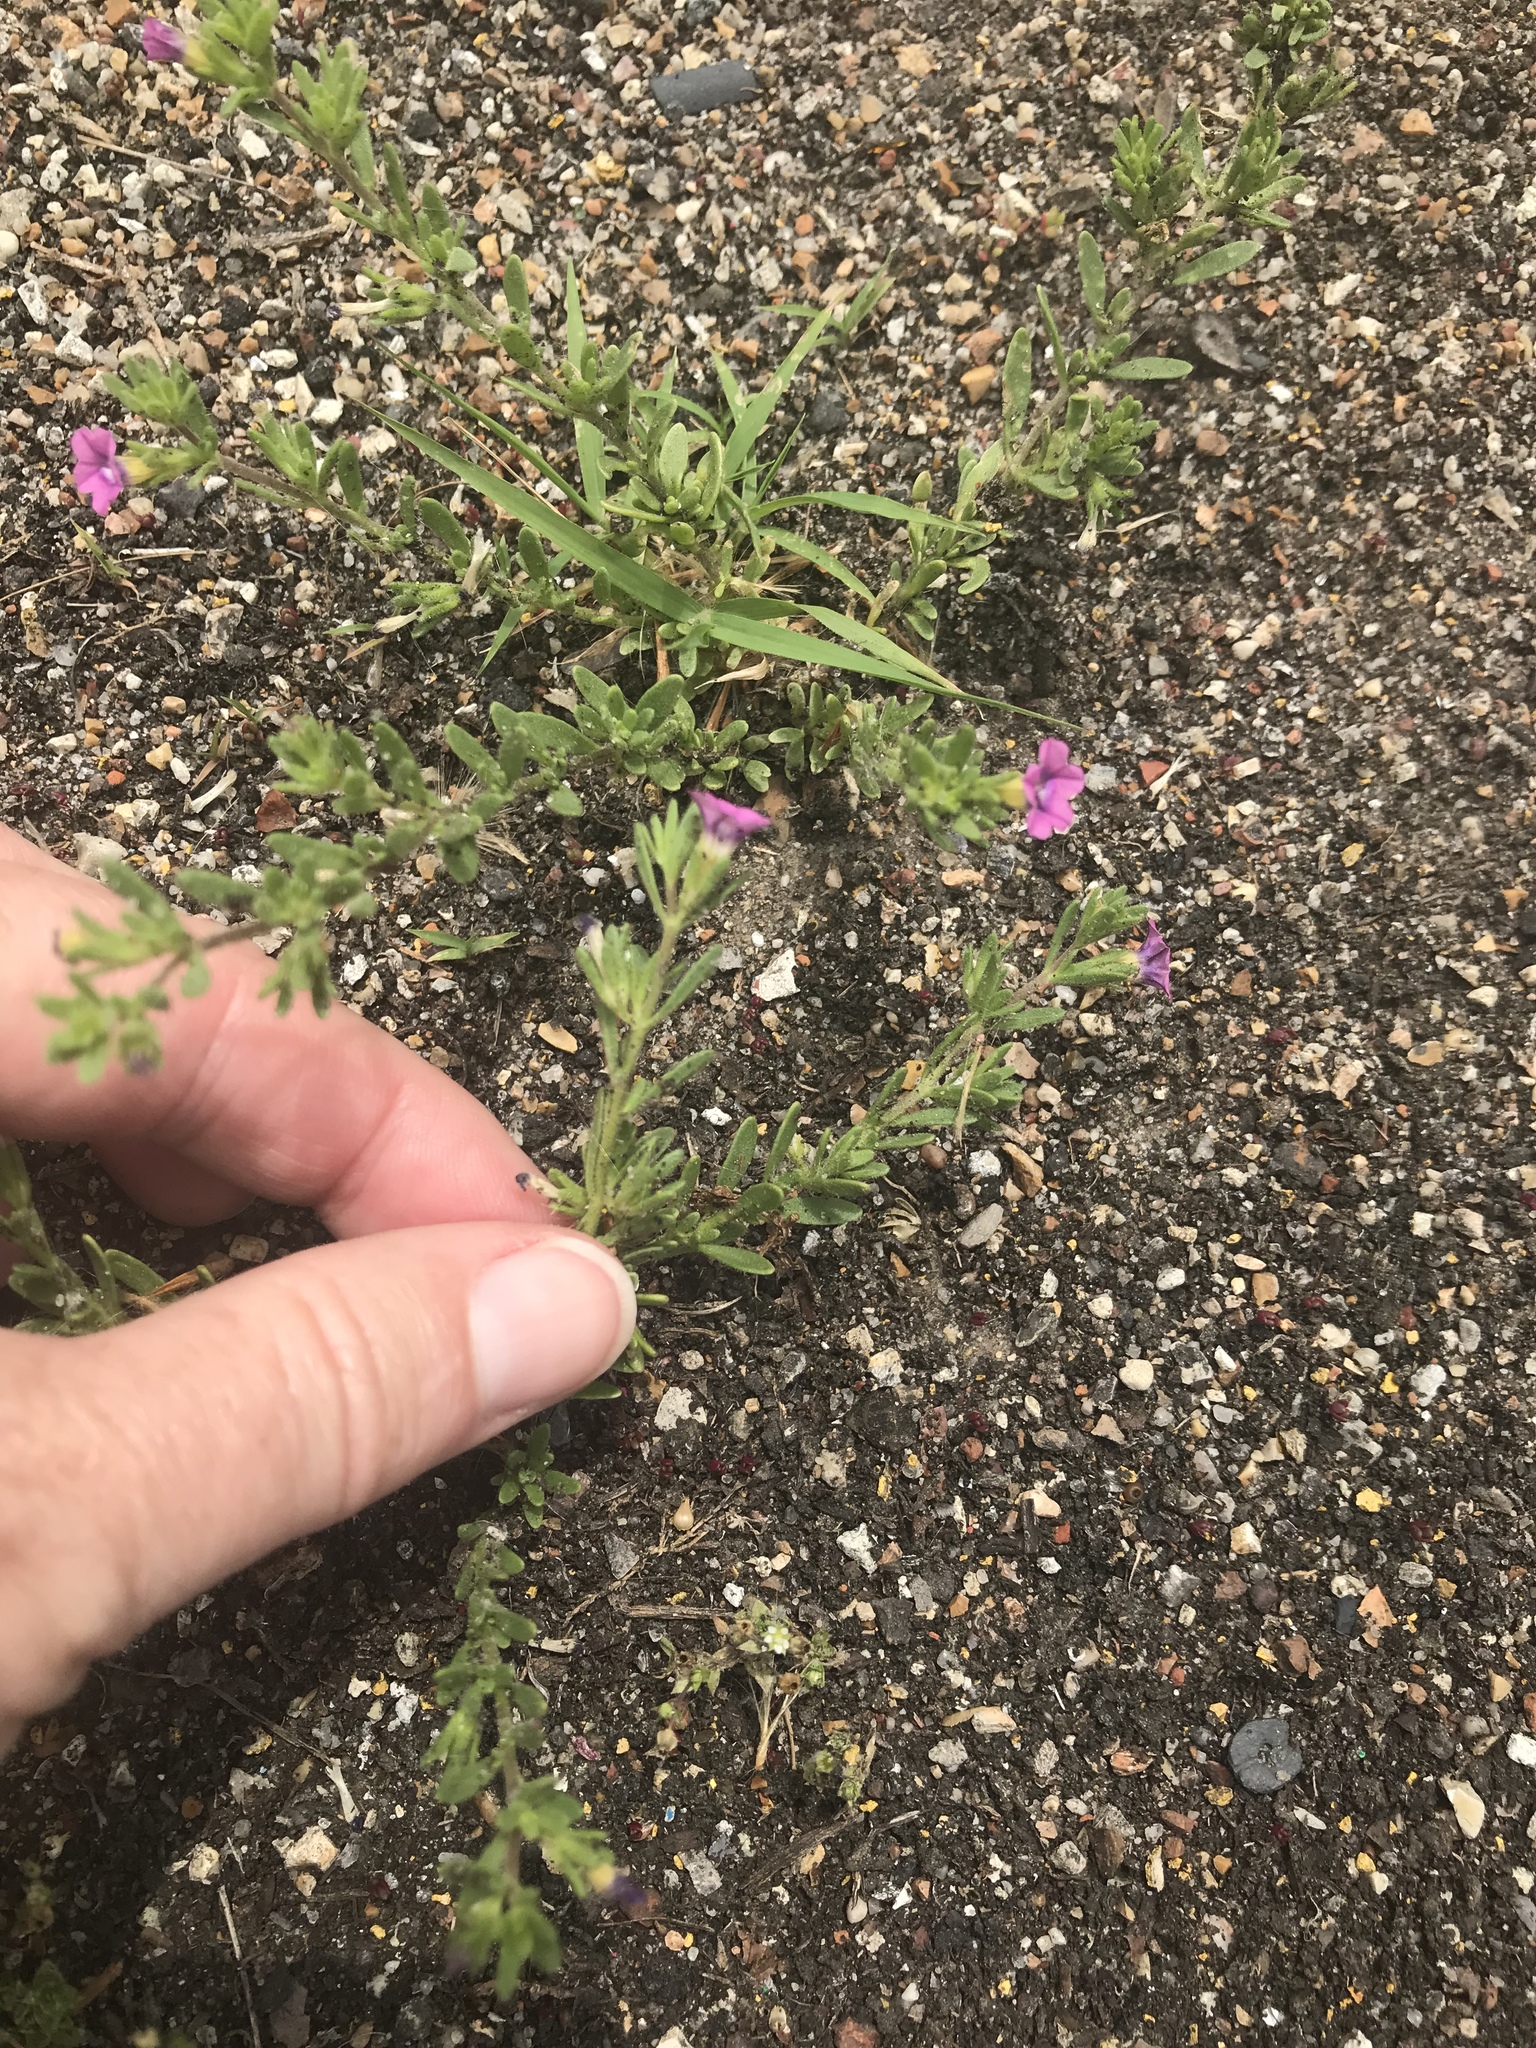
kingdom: Plantae
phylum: Tracheophyta
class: Magnoliopsida
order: Solanales
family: Solanaceae
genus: Calibrachoa
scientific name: Calibrachoa parviflora
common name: Seaside petunia
